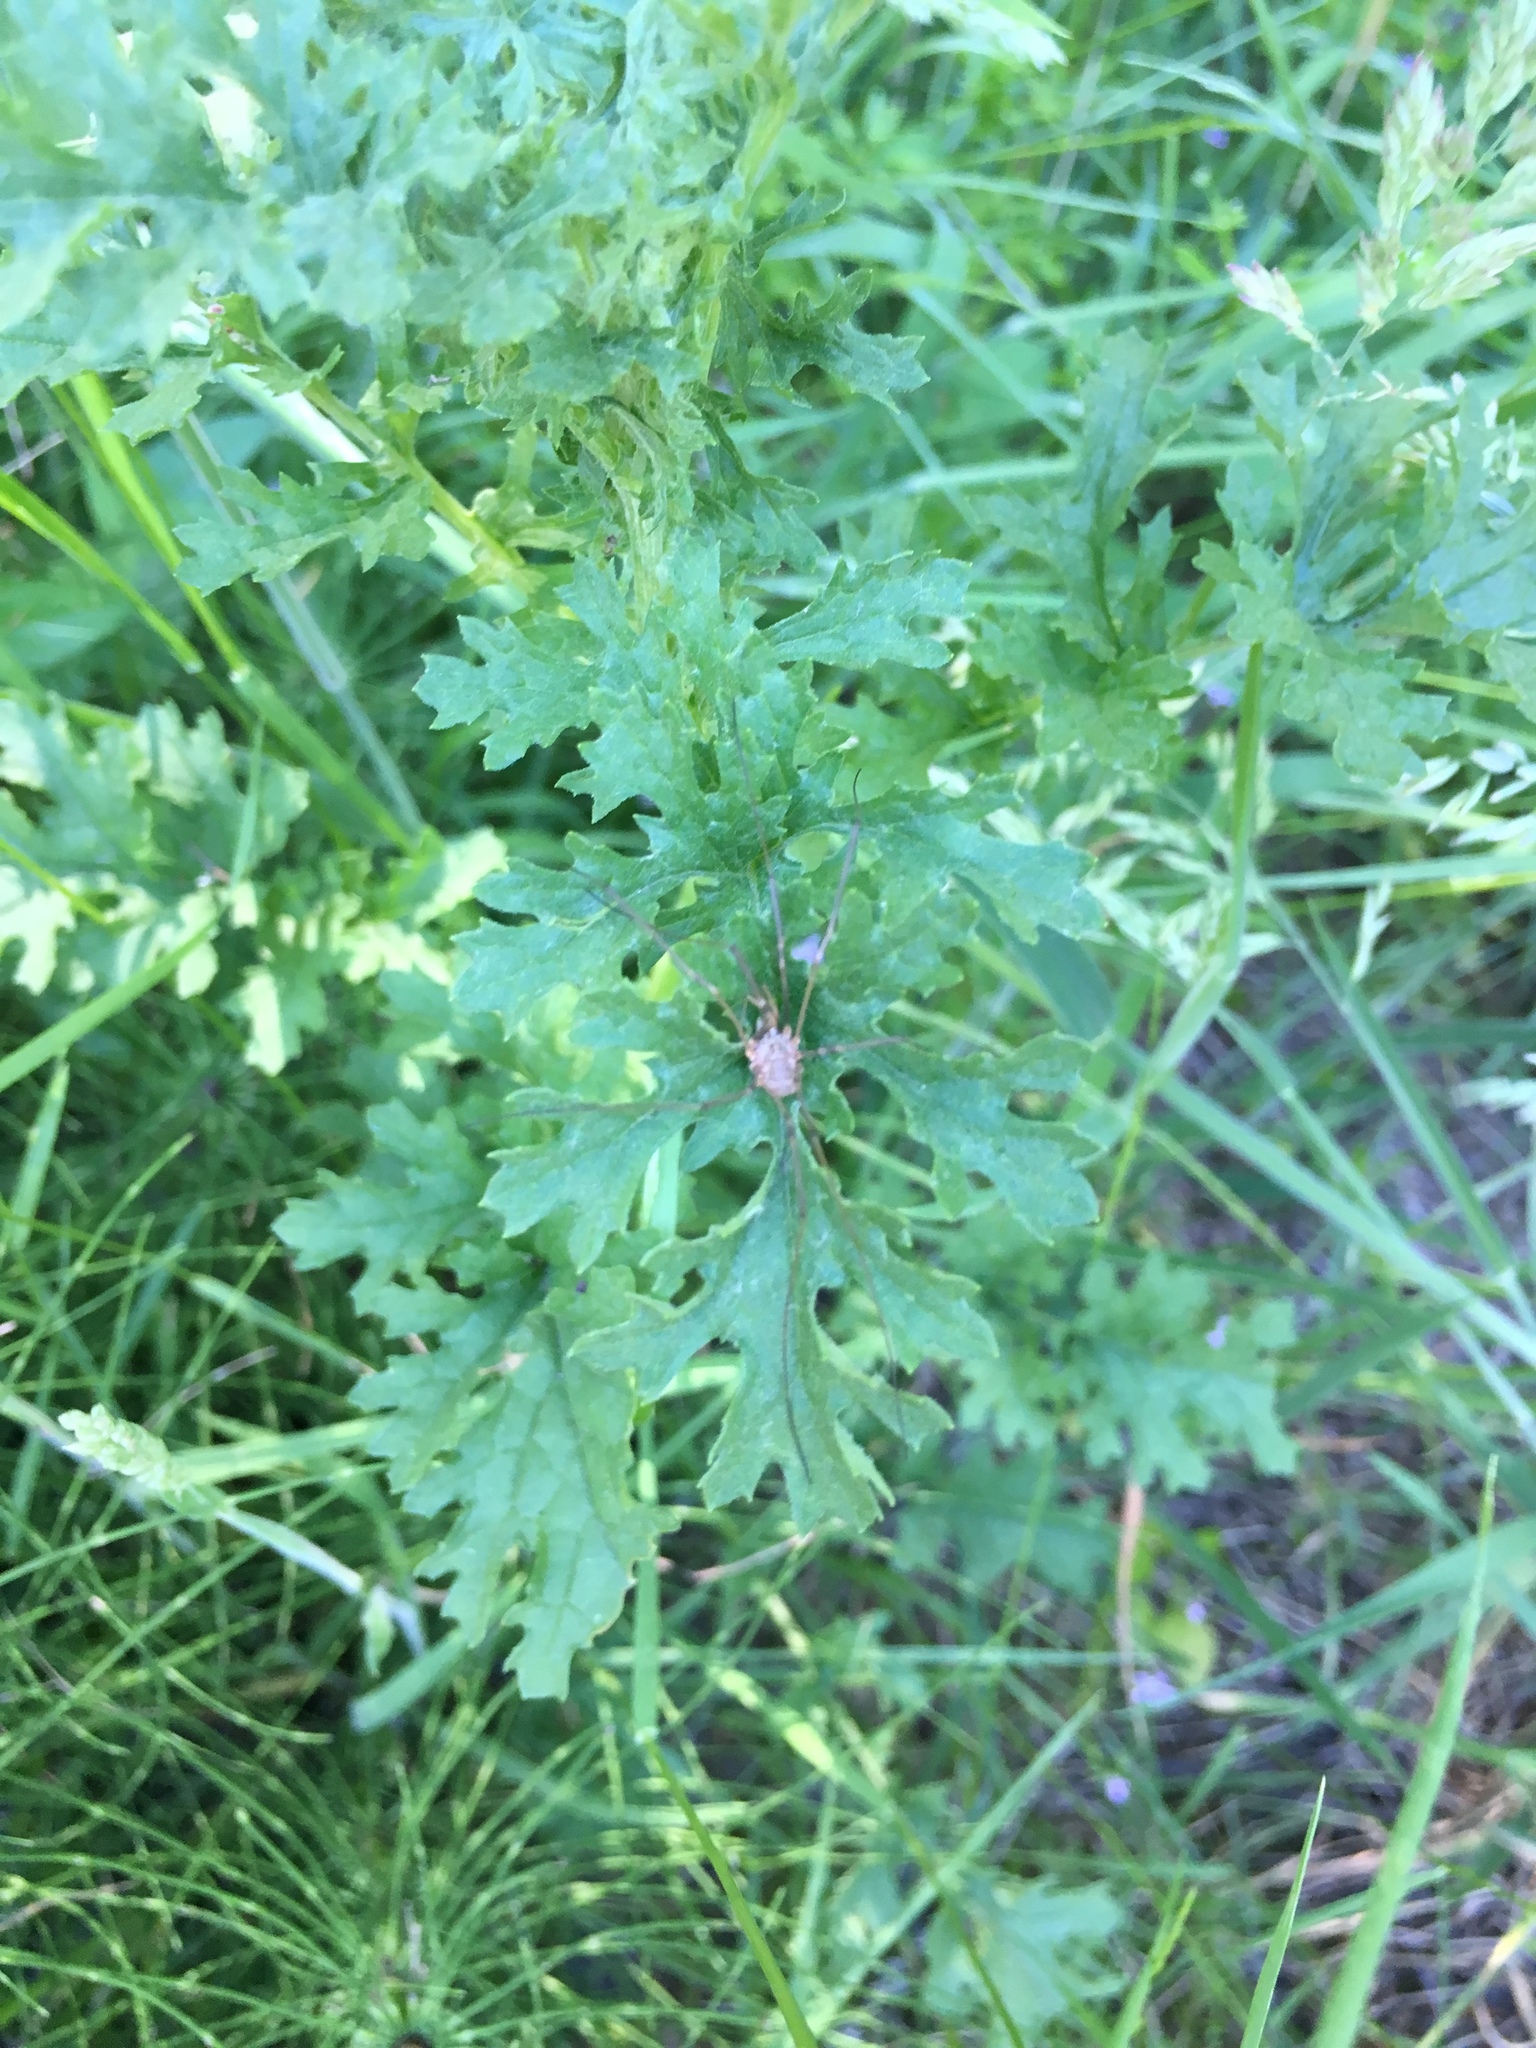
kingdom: Plantae
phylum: Tracheophyta
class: Magnoliopsida
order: Asterales
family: Asteraceae
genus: Jacobaea
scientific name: Jacobaea vulgaris
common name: Stinking willie
